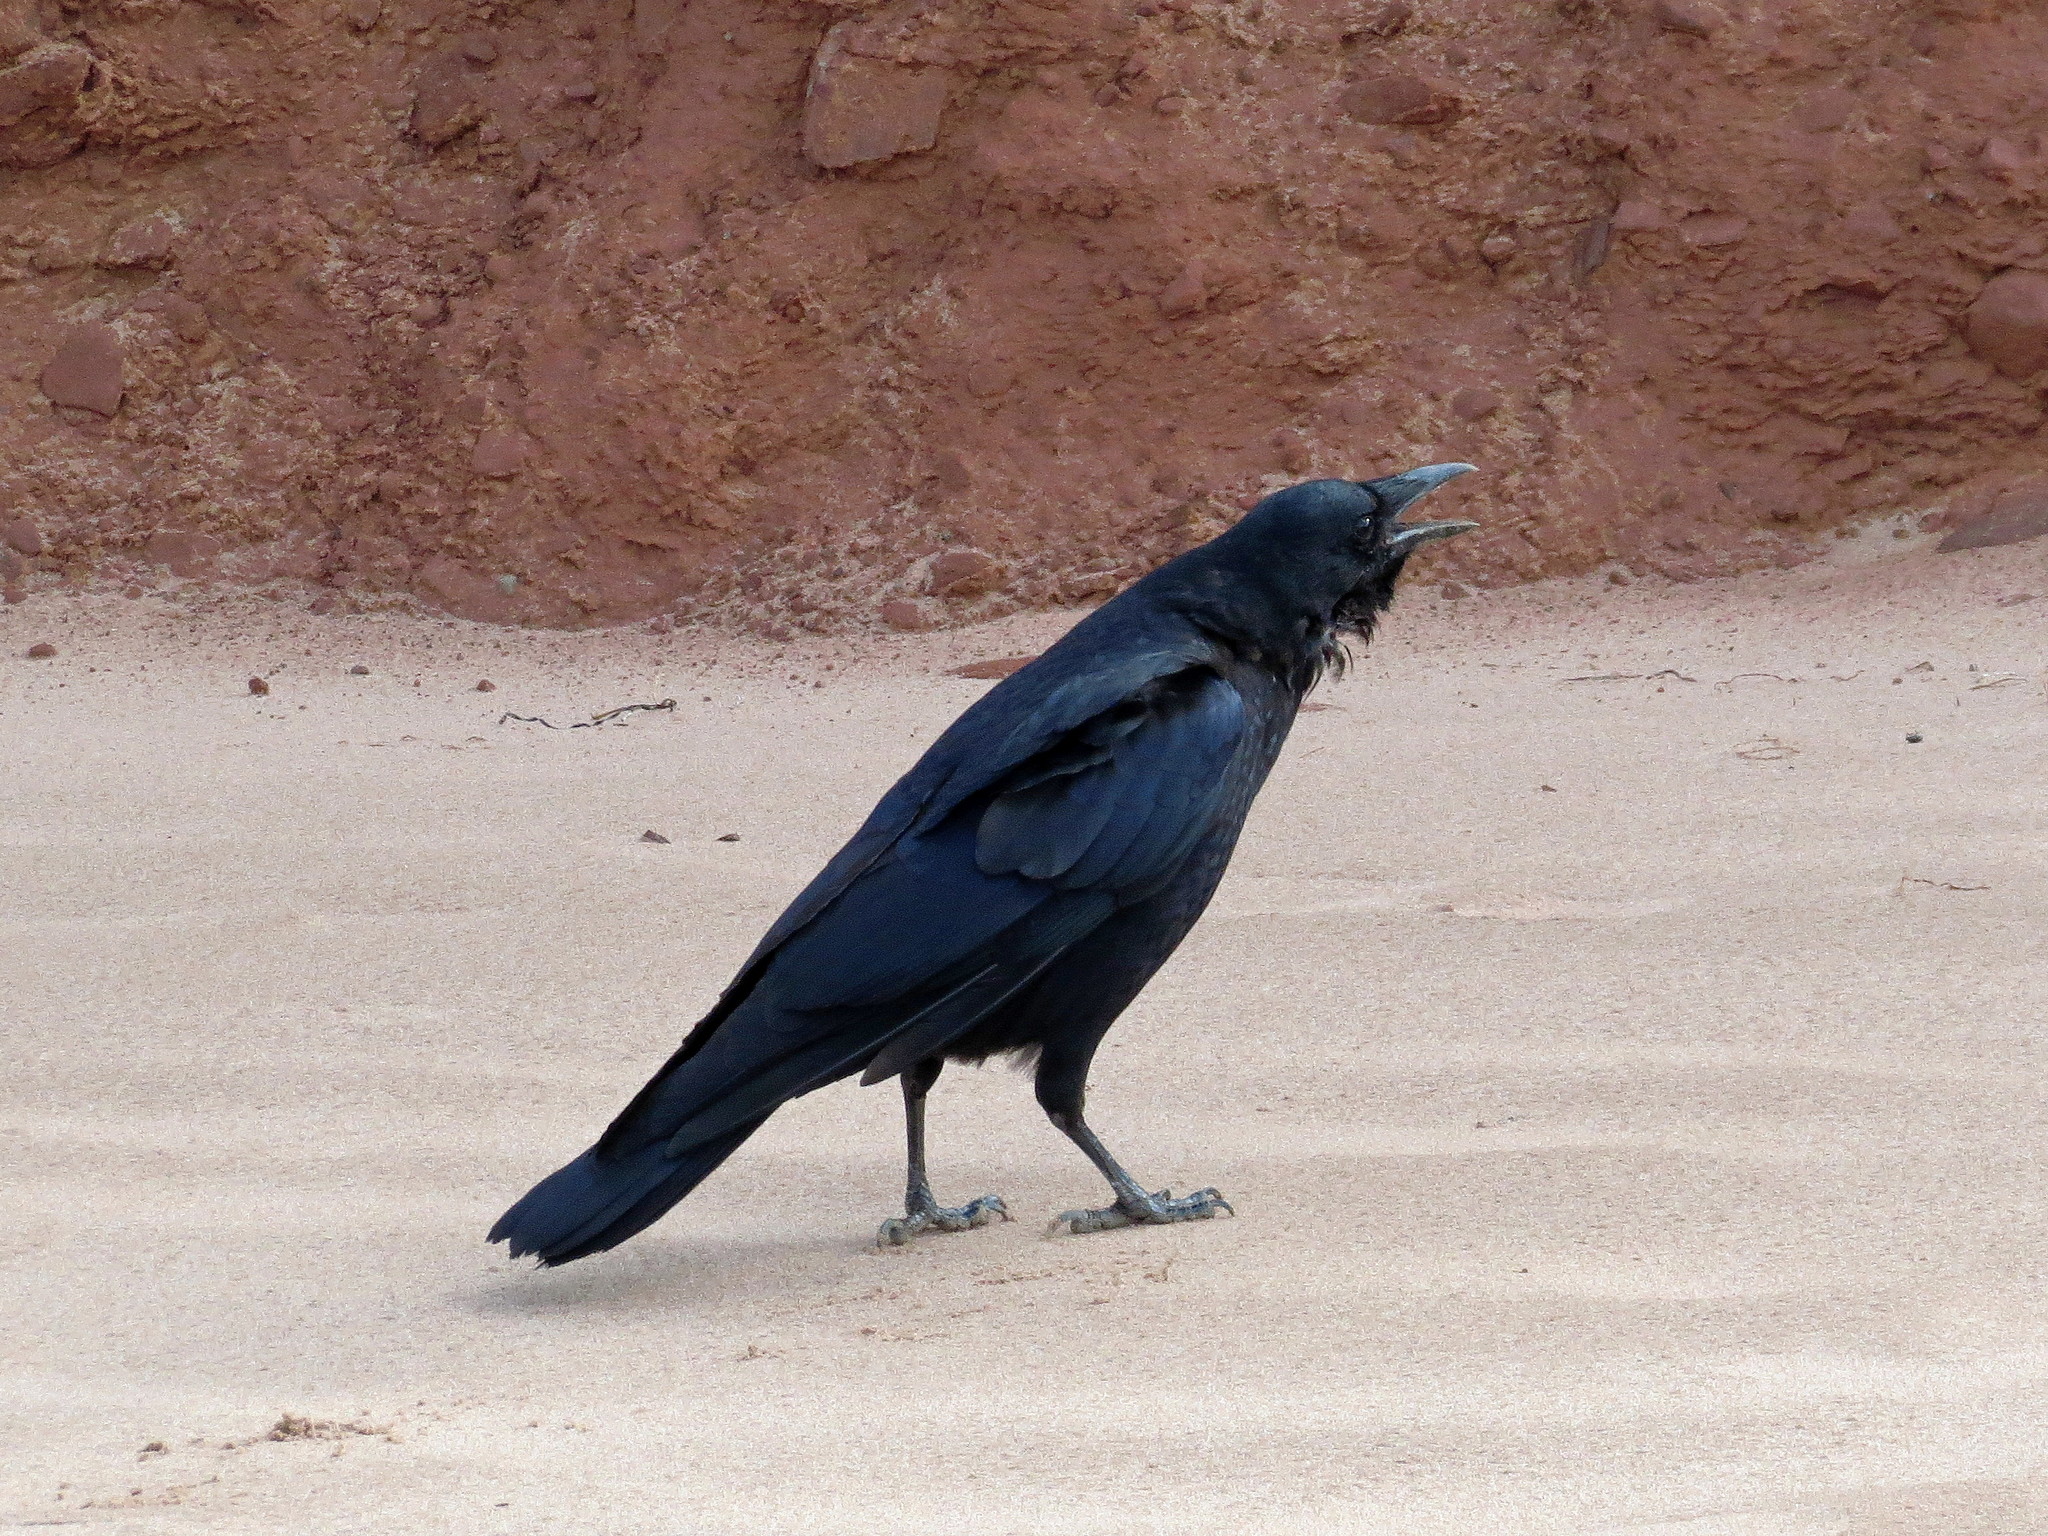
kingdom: Animalia
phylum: Chordata
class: Aves
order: Passeriformes
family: Corvidae
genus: Corvus
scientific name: Corvus corax
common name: Common raven
